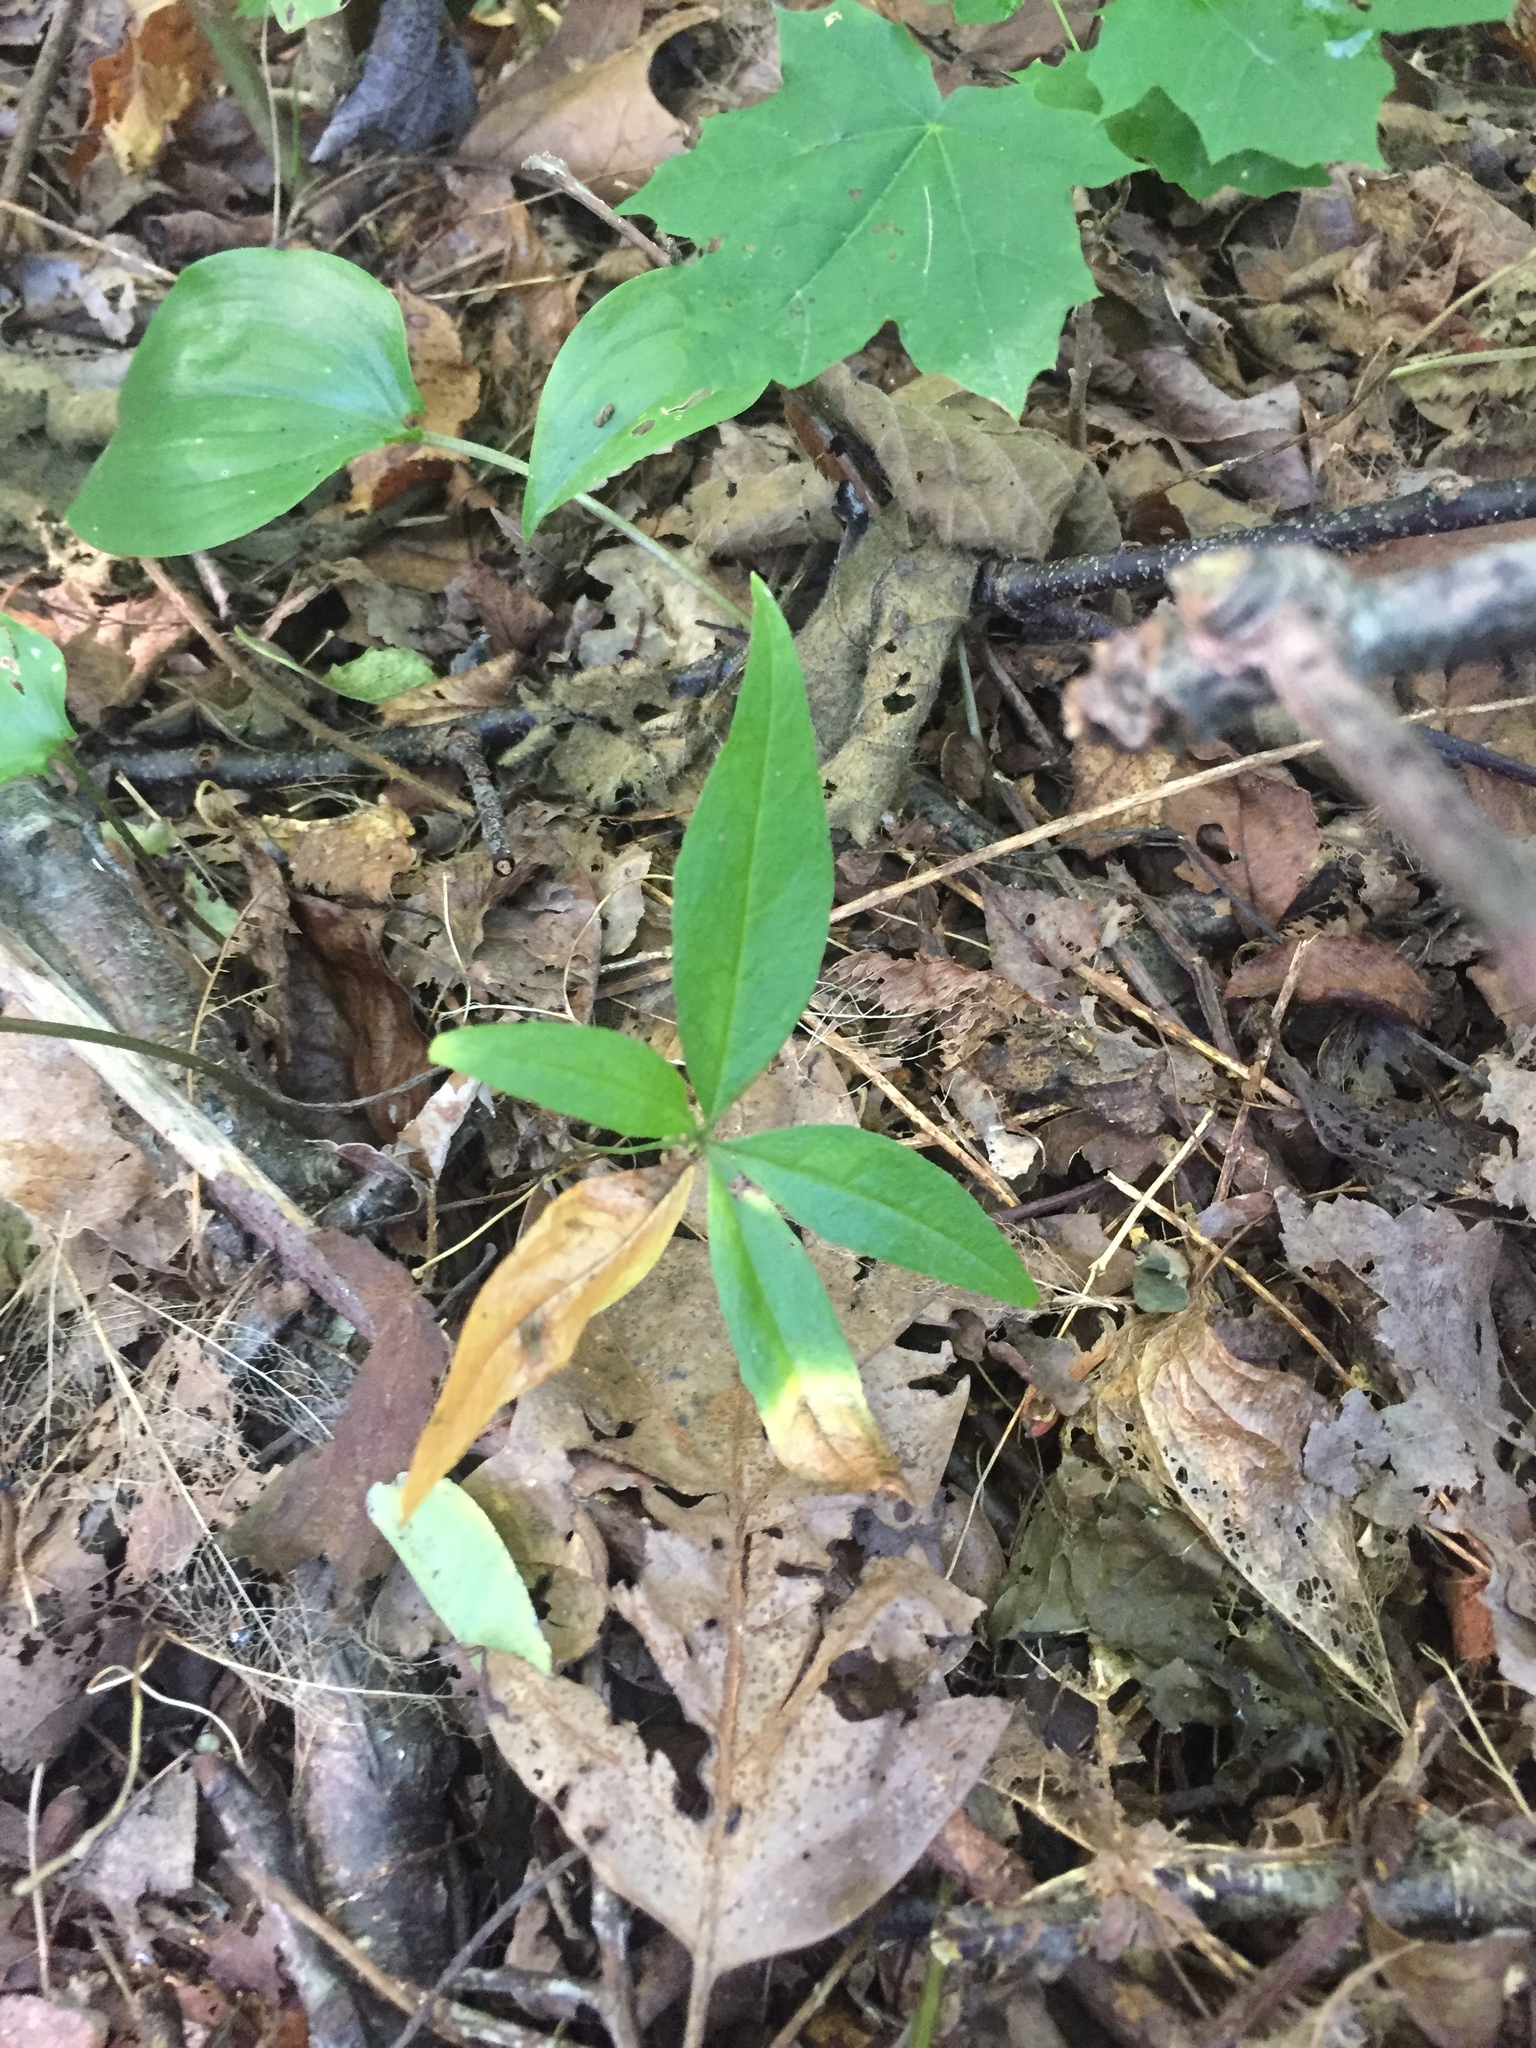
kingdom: Plantae
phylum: Tracheophyta
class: Magnoliopsida
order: Ericales
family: Primulaceae
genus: Lysimachia
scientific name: Lysimachia borealis
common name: American starflower
